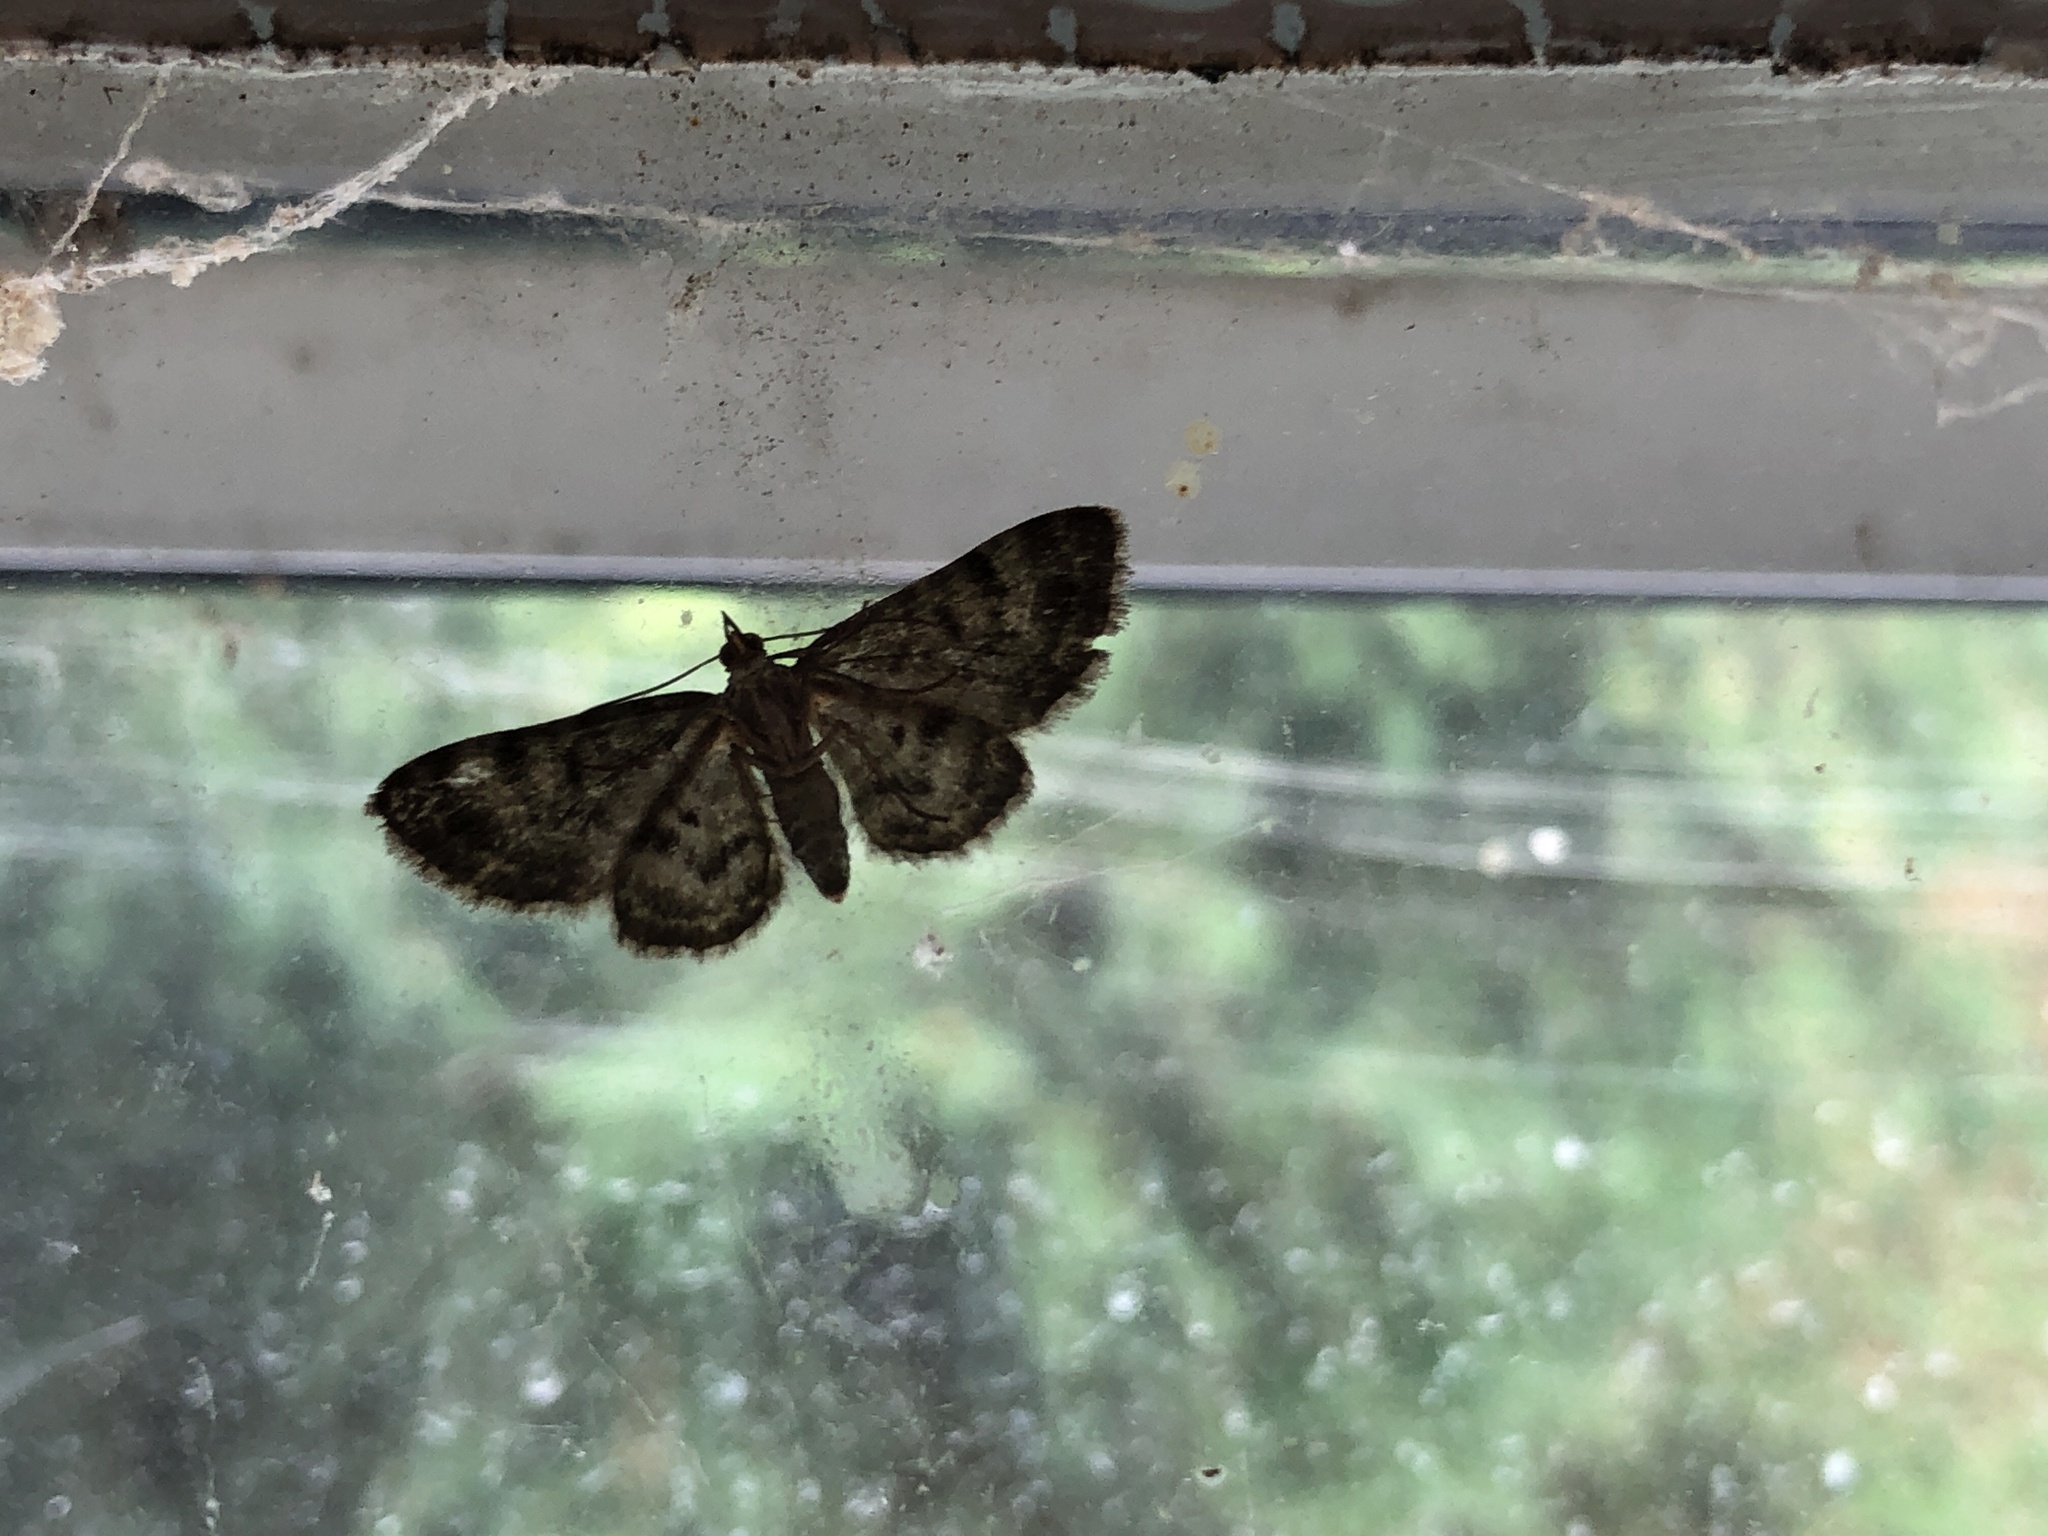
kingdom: Animalia
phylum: Arthropoda
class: Insecta
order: Lepidoptera
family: Geometridae
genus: Pasiphila
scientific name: Pasiphila rectangulata
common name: Green pug
